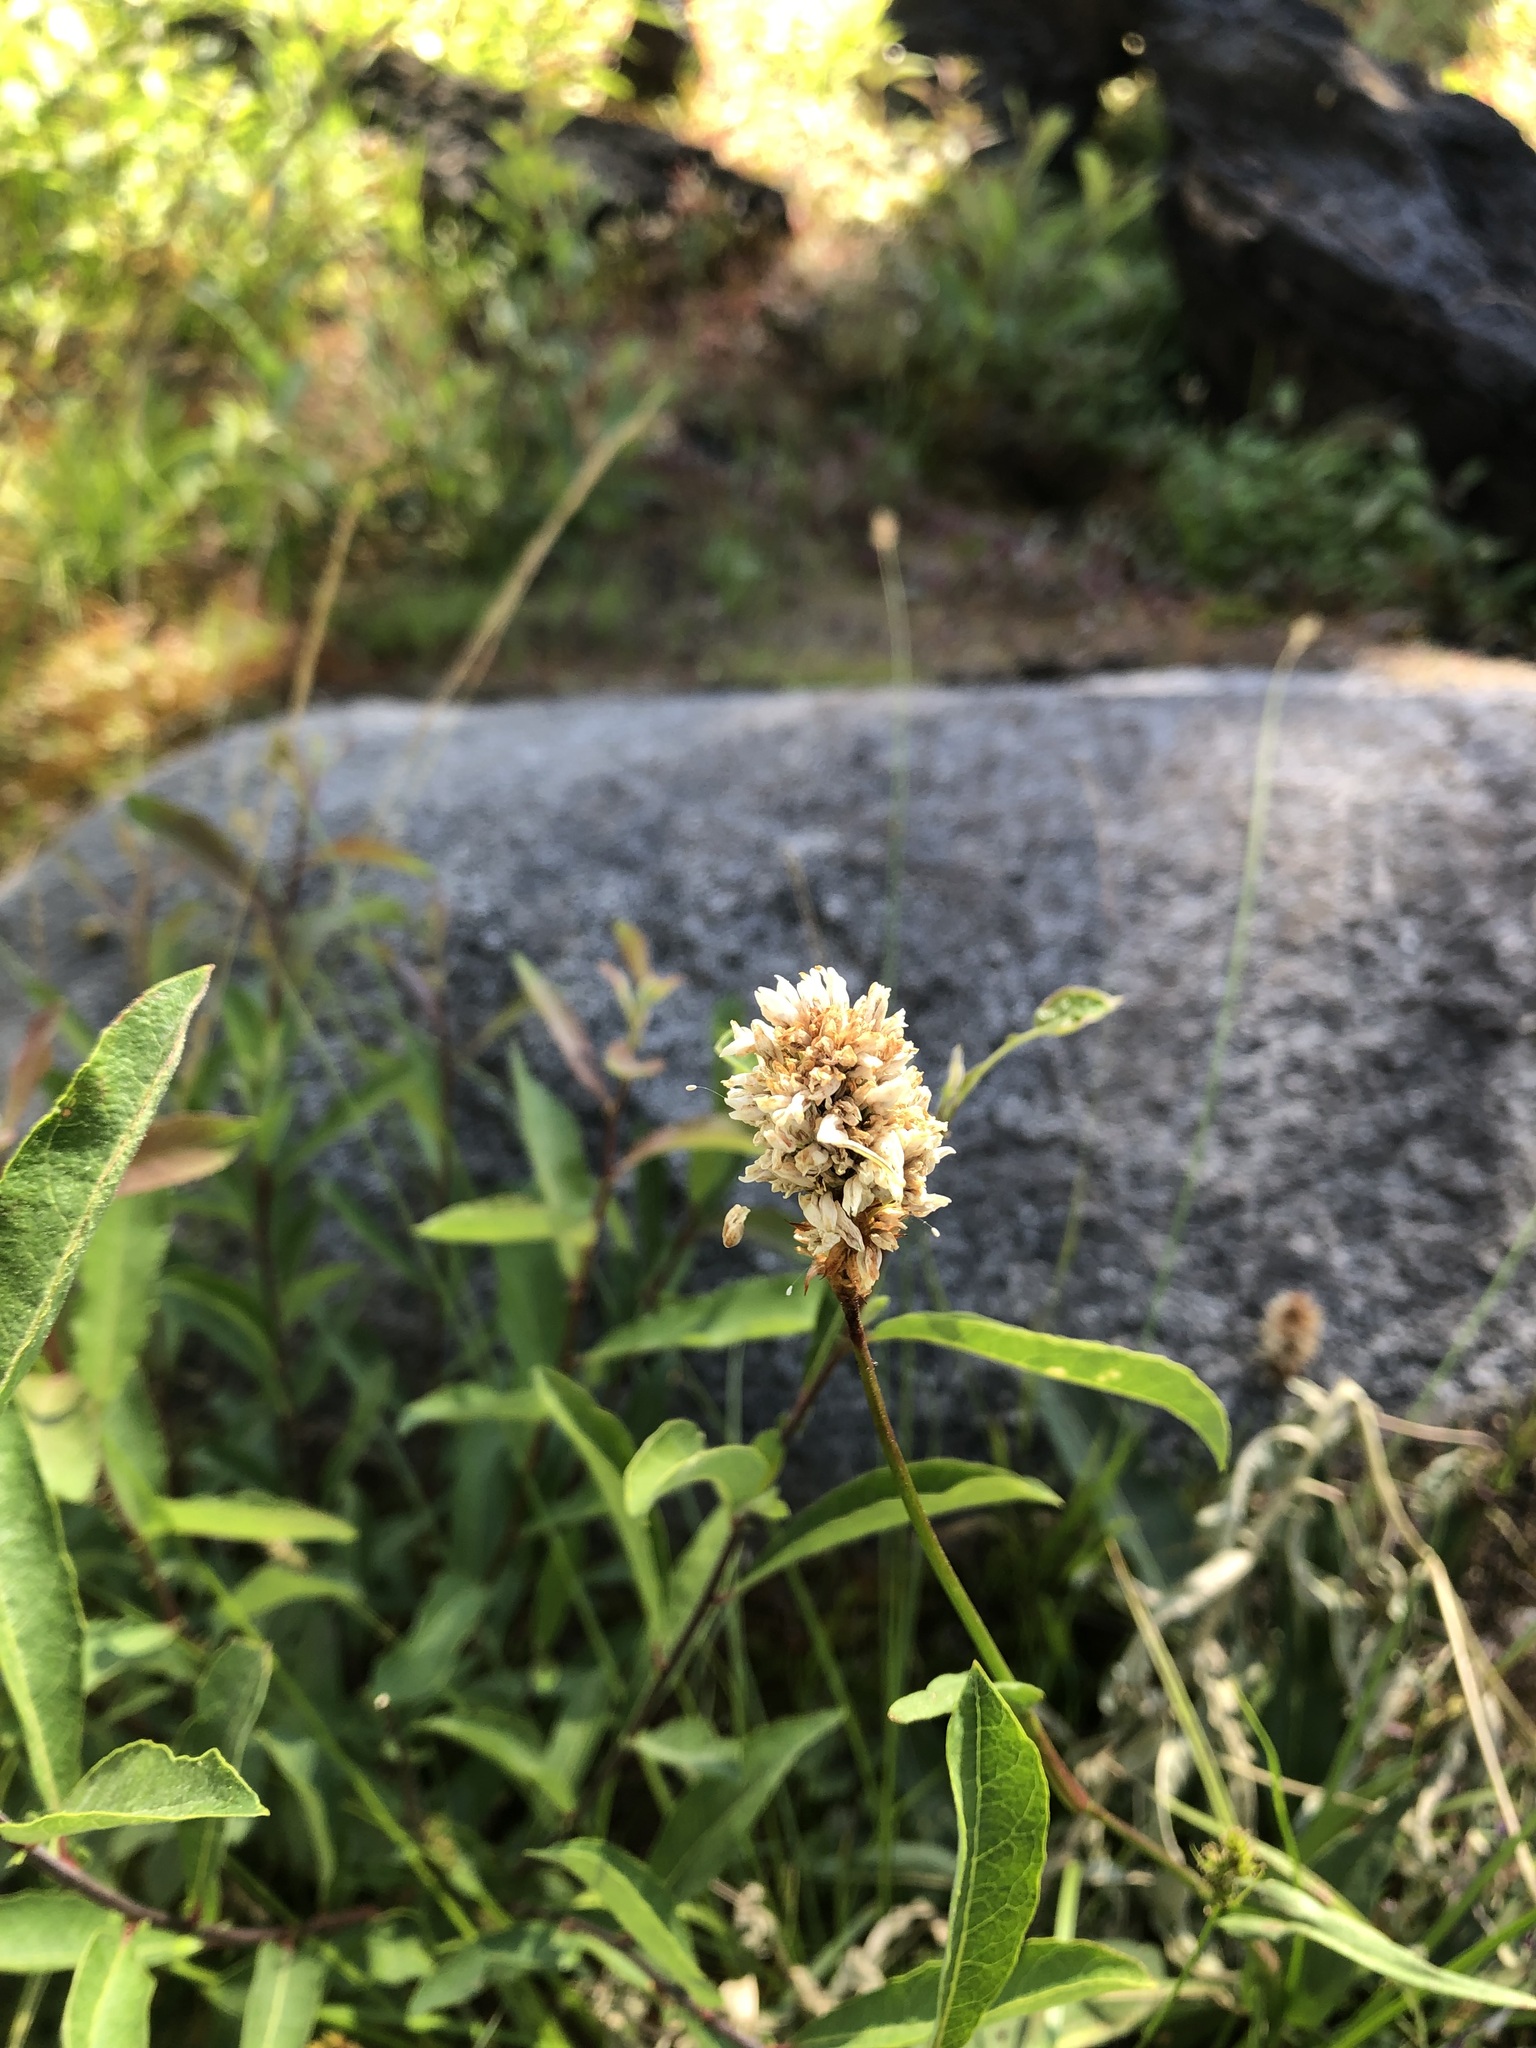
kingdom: Plantae
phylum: Tracheophyta
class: Magnoliopsida
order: Caryophyllales
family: Polygonaceae
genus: Bistorta
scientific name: Bistorta bistortoides
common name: American bistort
